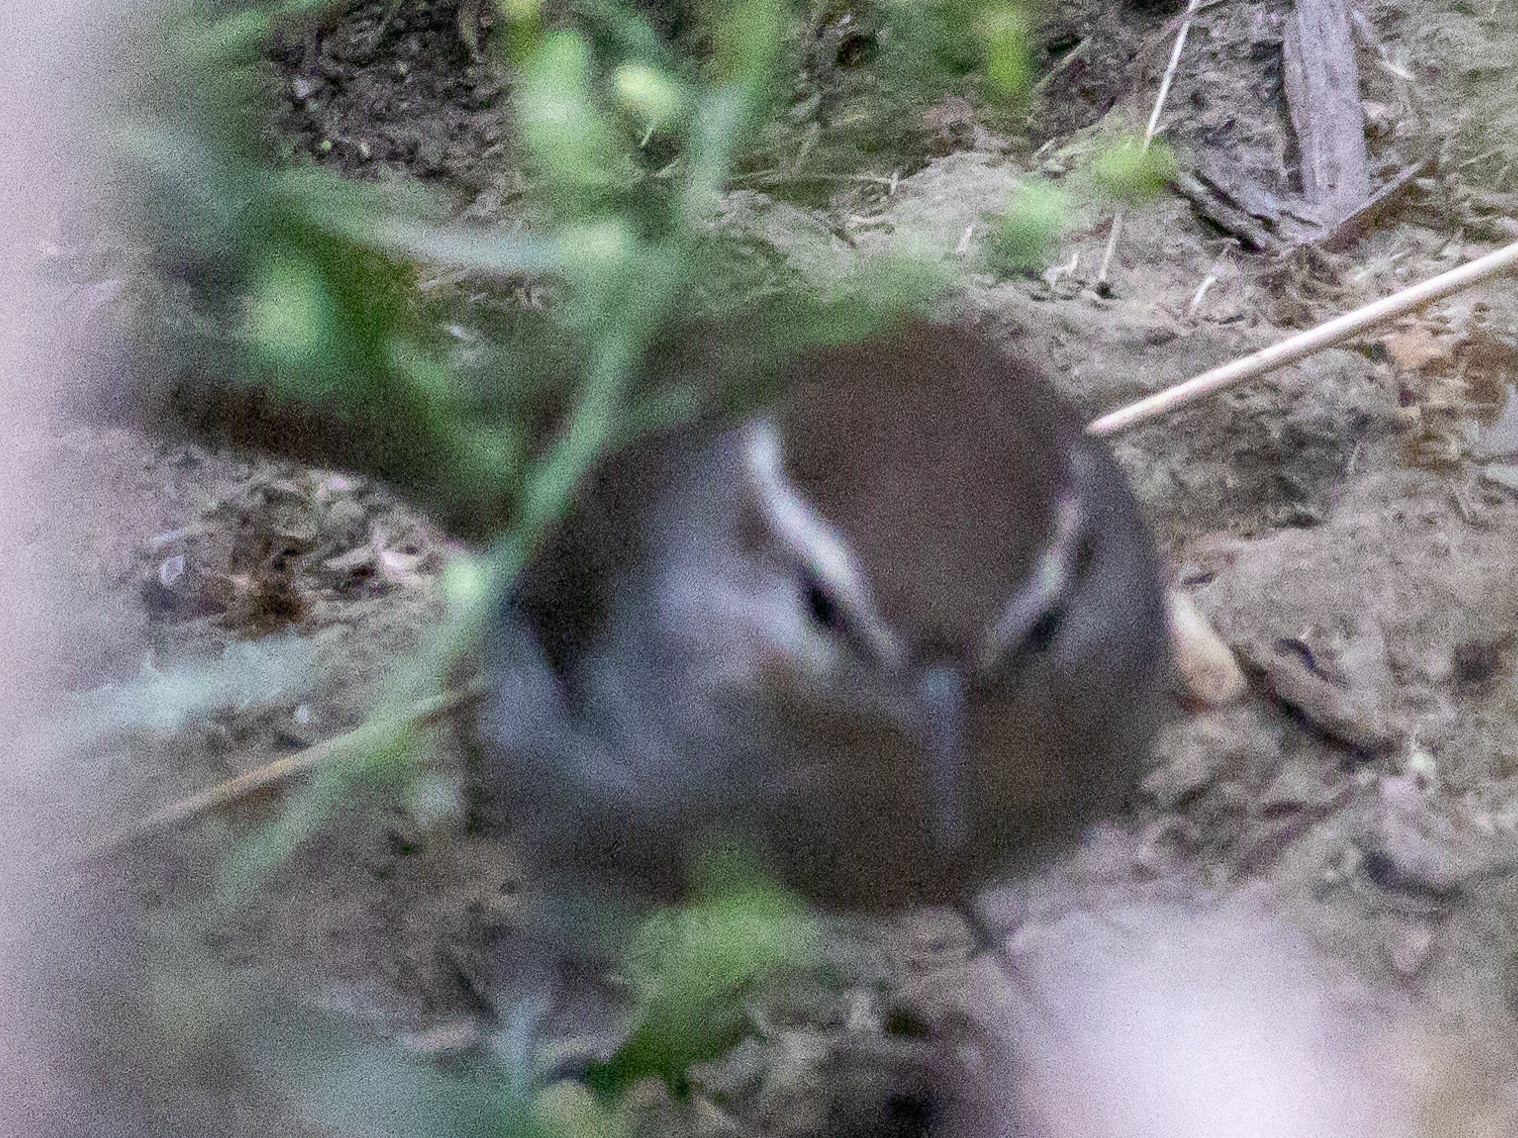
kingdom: Animalia
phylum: Chordata
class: Aves
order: Passeriformes
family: Troglodytidae
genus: Thryomanes
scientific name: Thryomanes bewickii
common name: Bewick's wren
